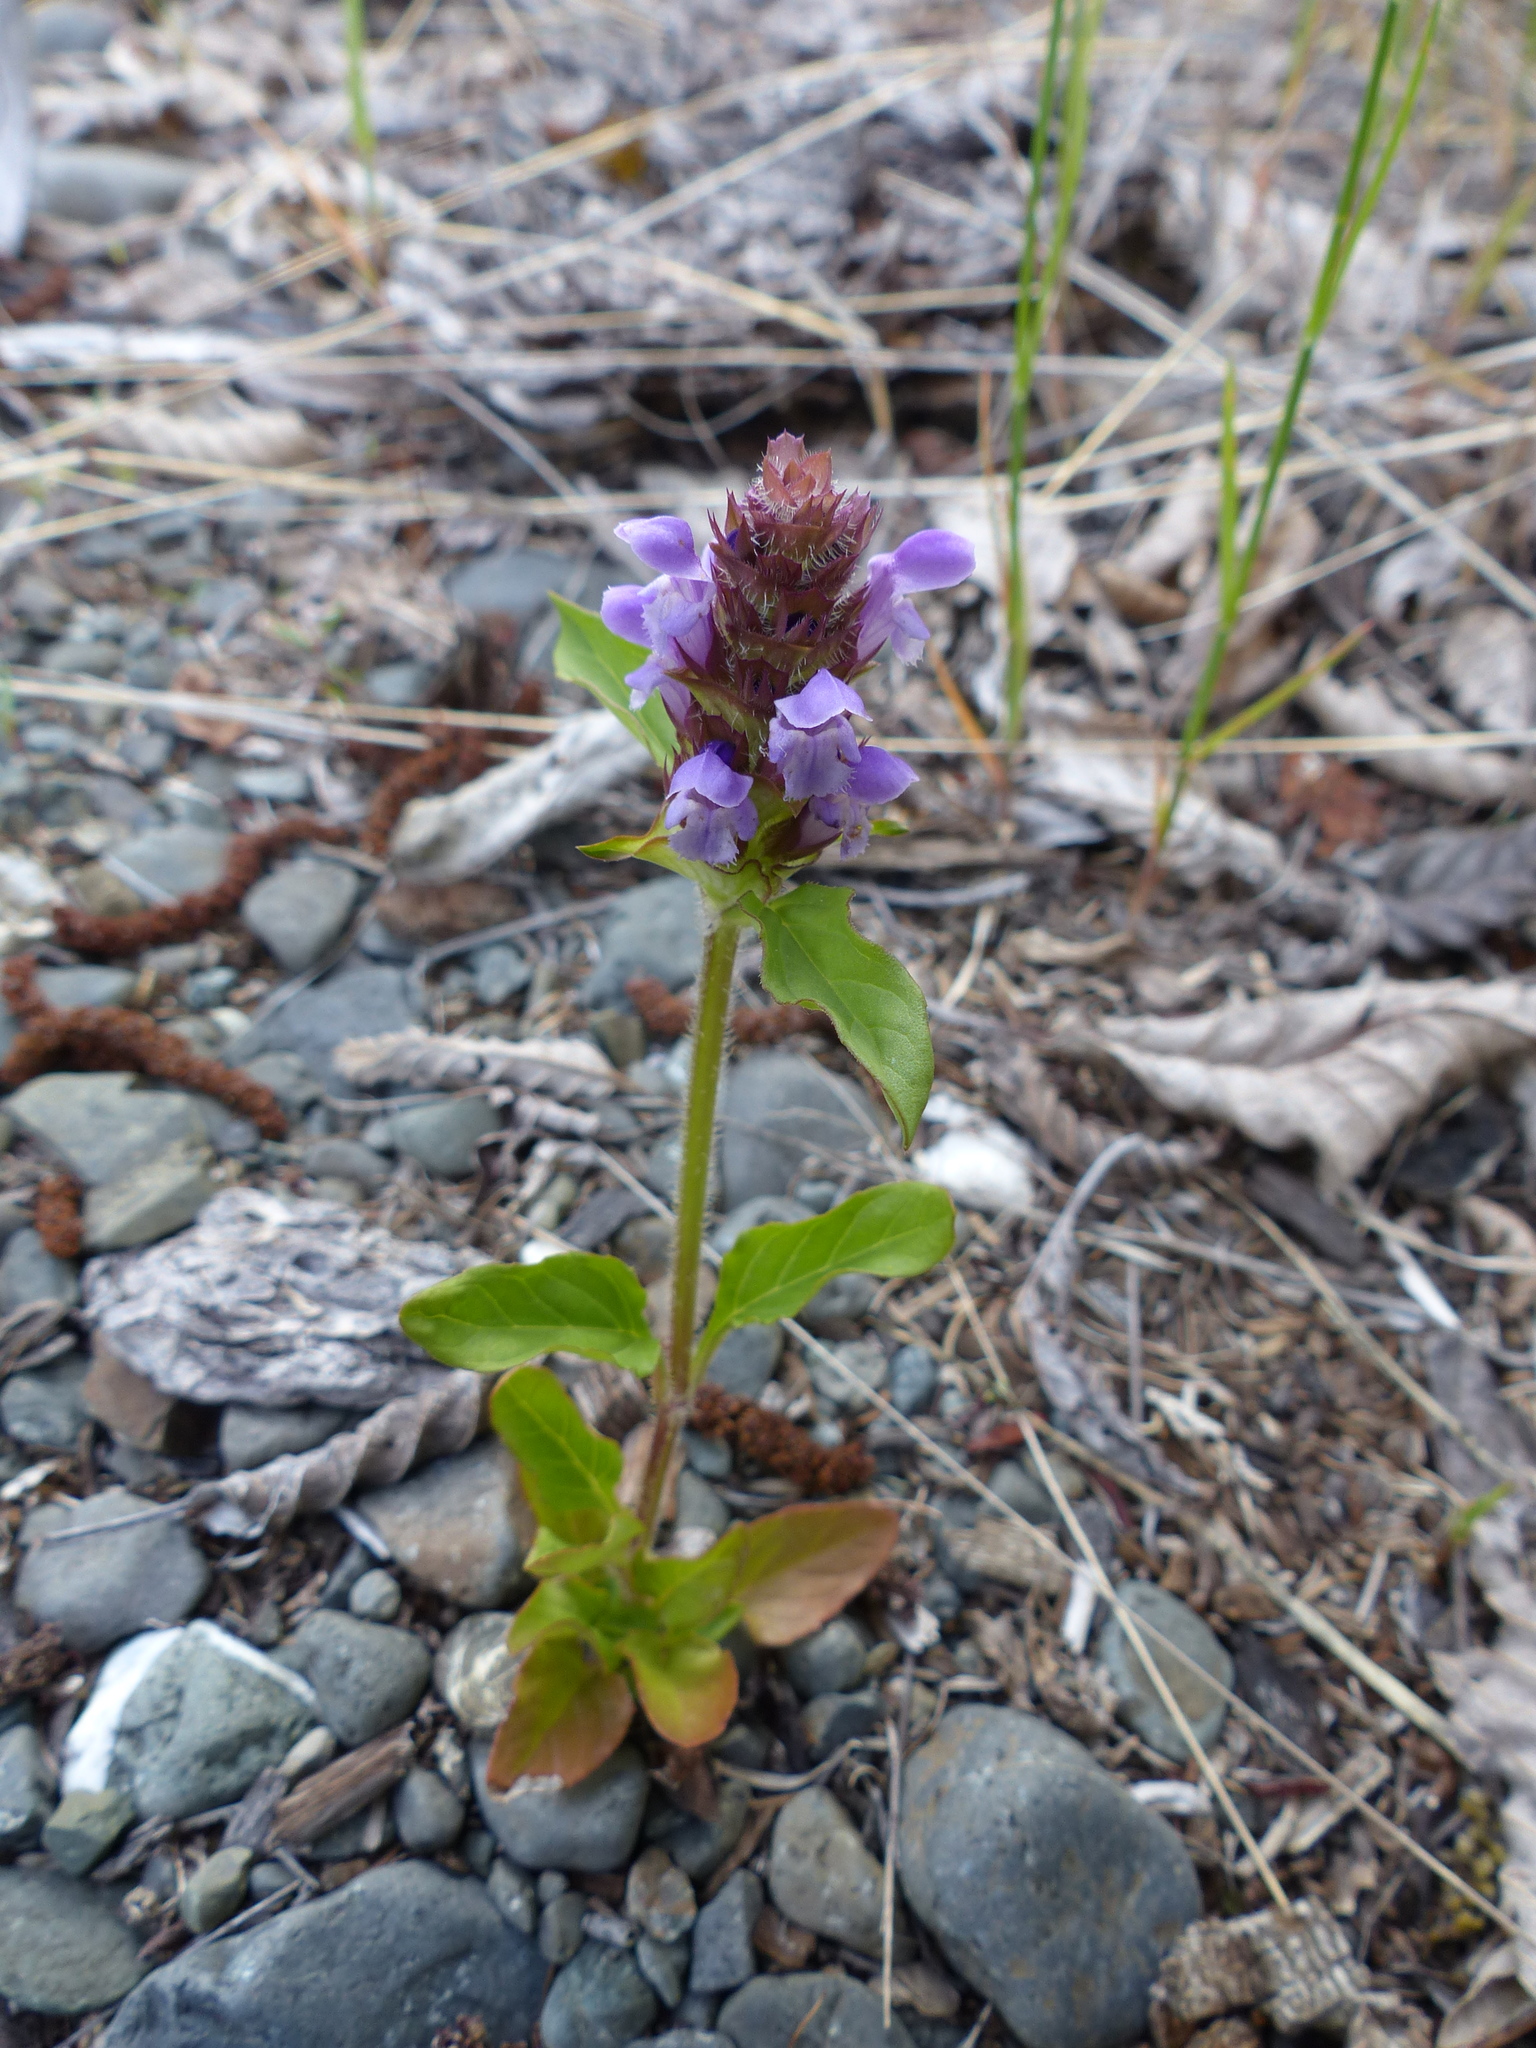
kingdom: Plantae
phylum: Tracheophyta
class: Magnoliopsida
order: Lamiales
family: Lamiaceae
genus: Prunella
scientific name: Prunella vulgaris
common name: Heal-all
